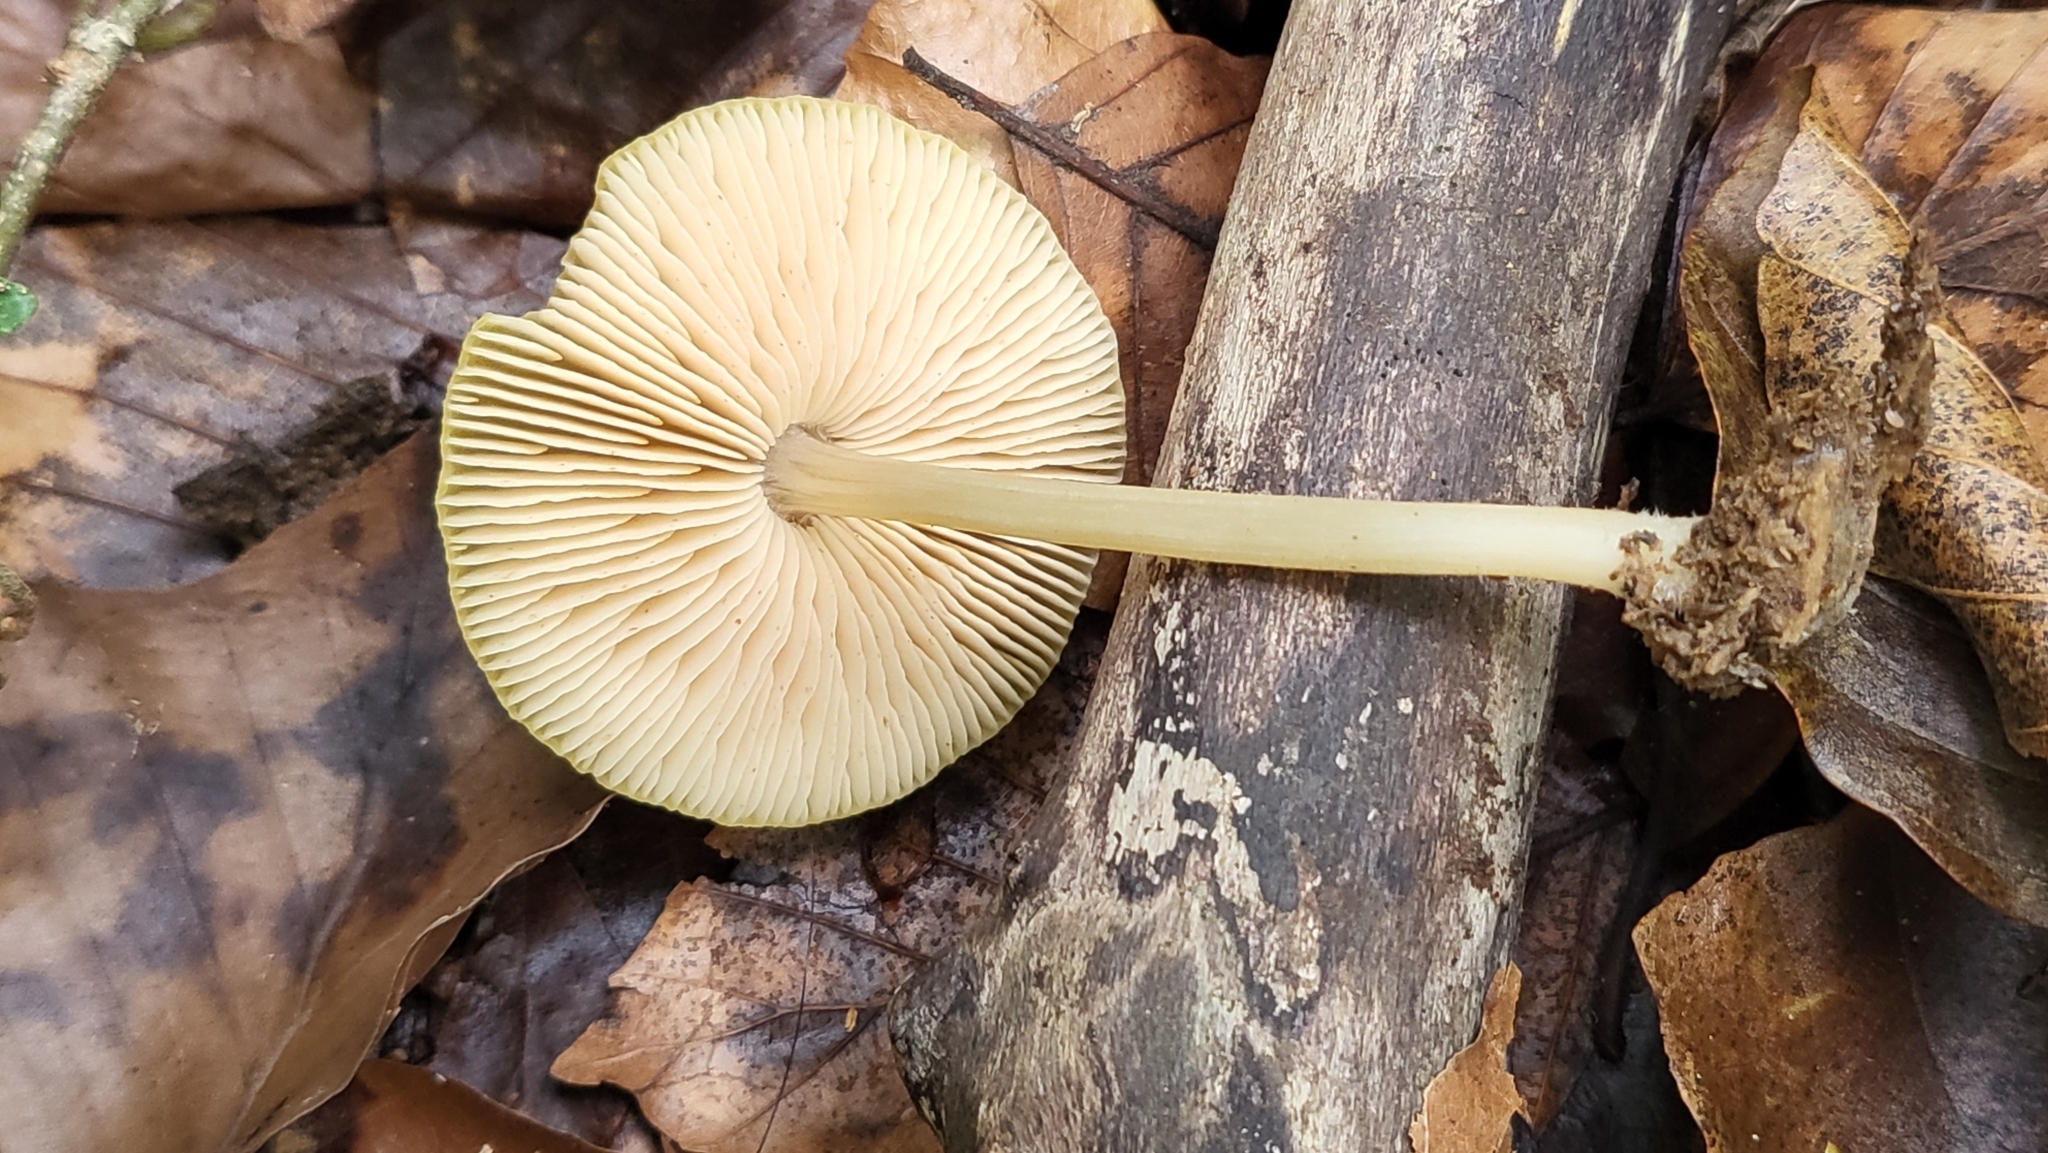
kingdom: Fungi
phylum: Basidiomycota
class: Agaricomycetes
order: Agaricales
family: Pluteaceae
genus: Pluteus
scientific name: Pluteus chrysophlebius
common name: Yellow deer mushroom
